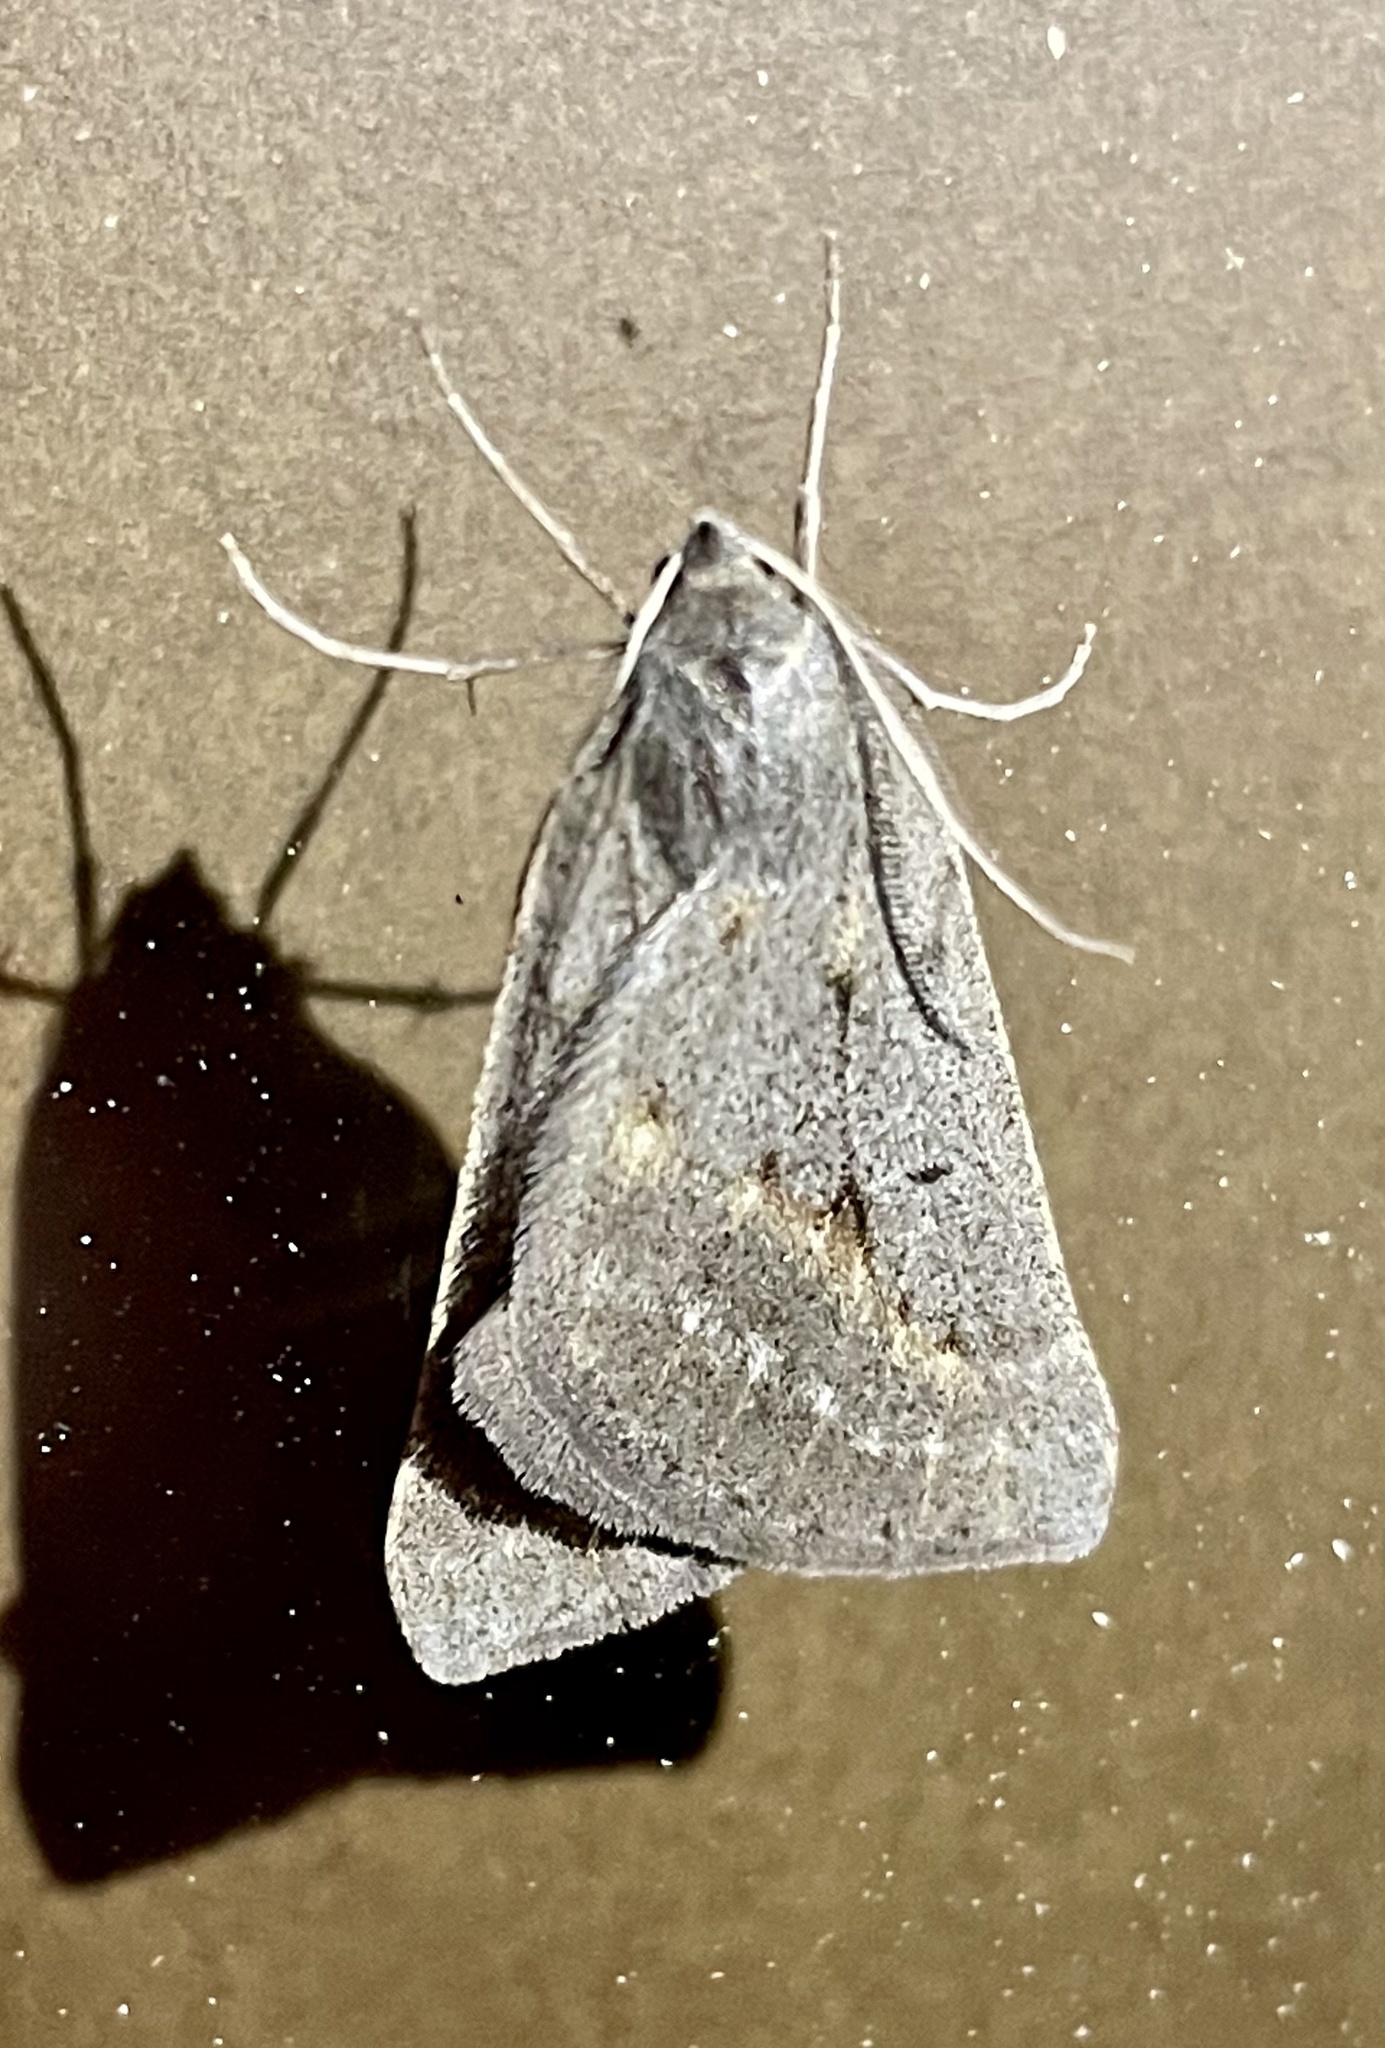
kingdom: Animalia
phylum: Arthropoda
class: Insecta
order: Lepidoptera
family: Geometridae
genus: Chemerina
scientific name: Chemerina caliginearia
